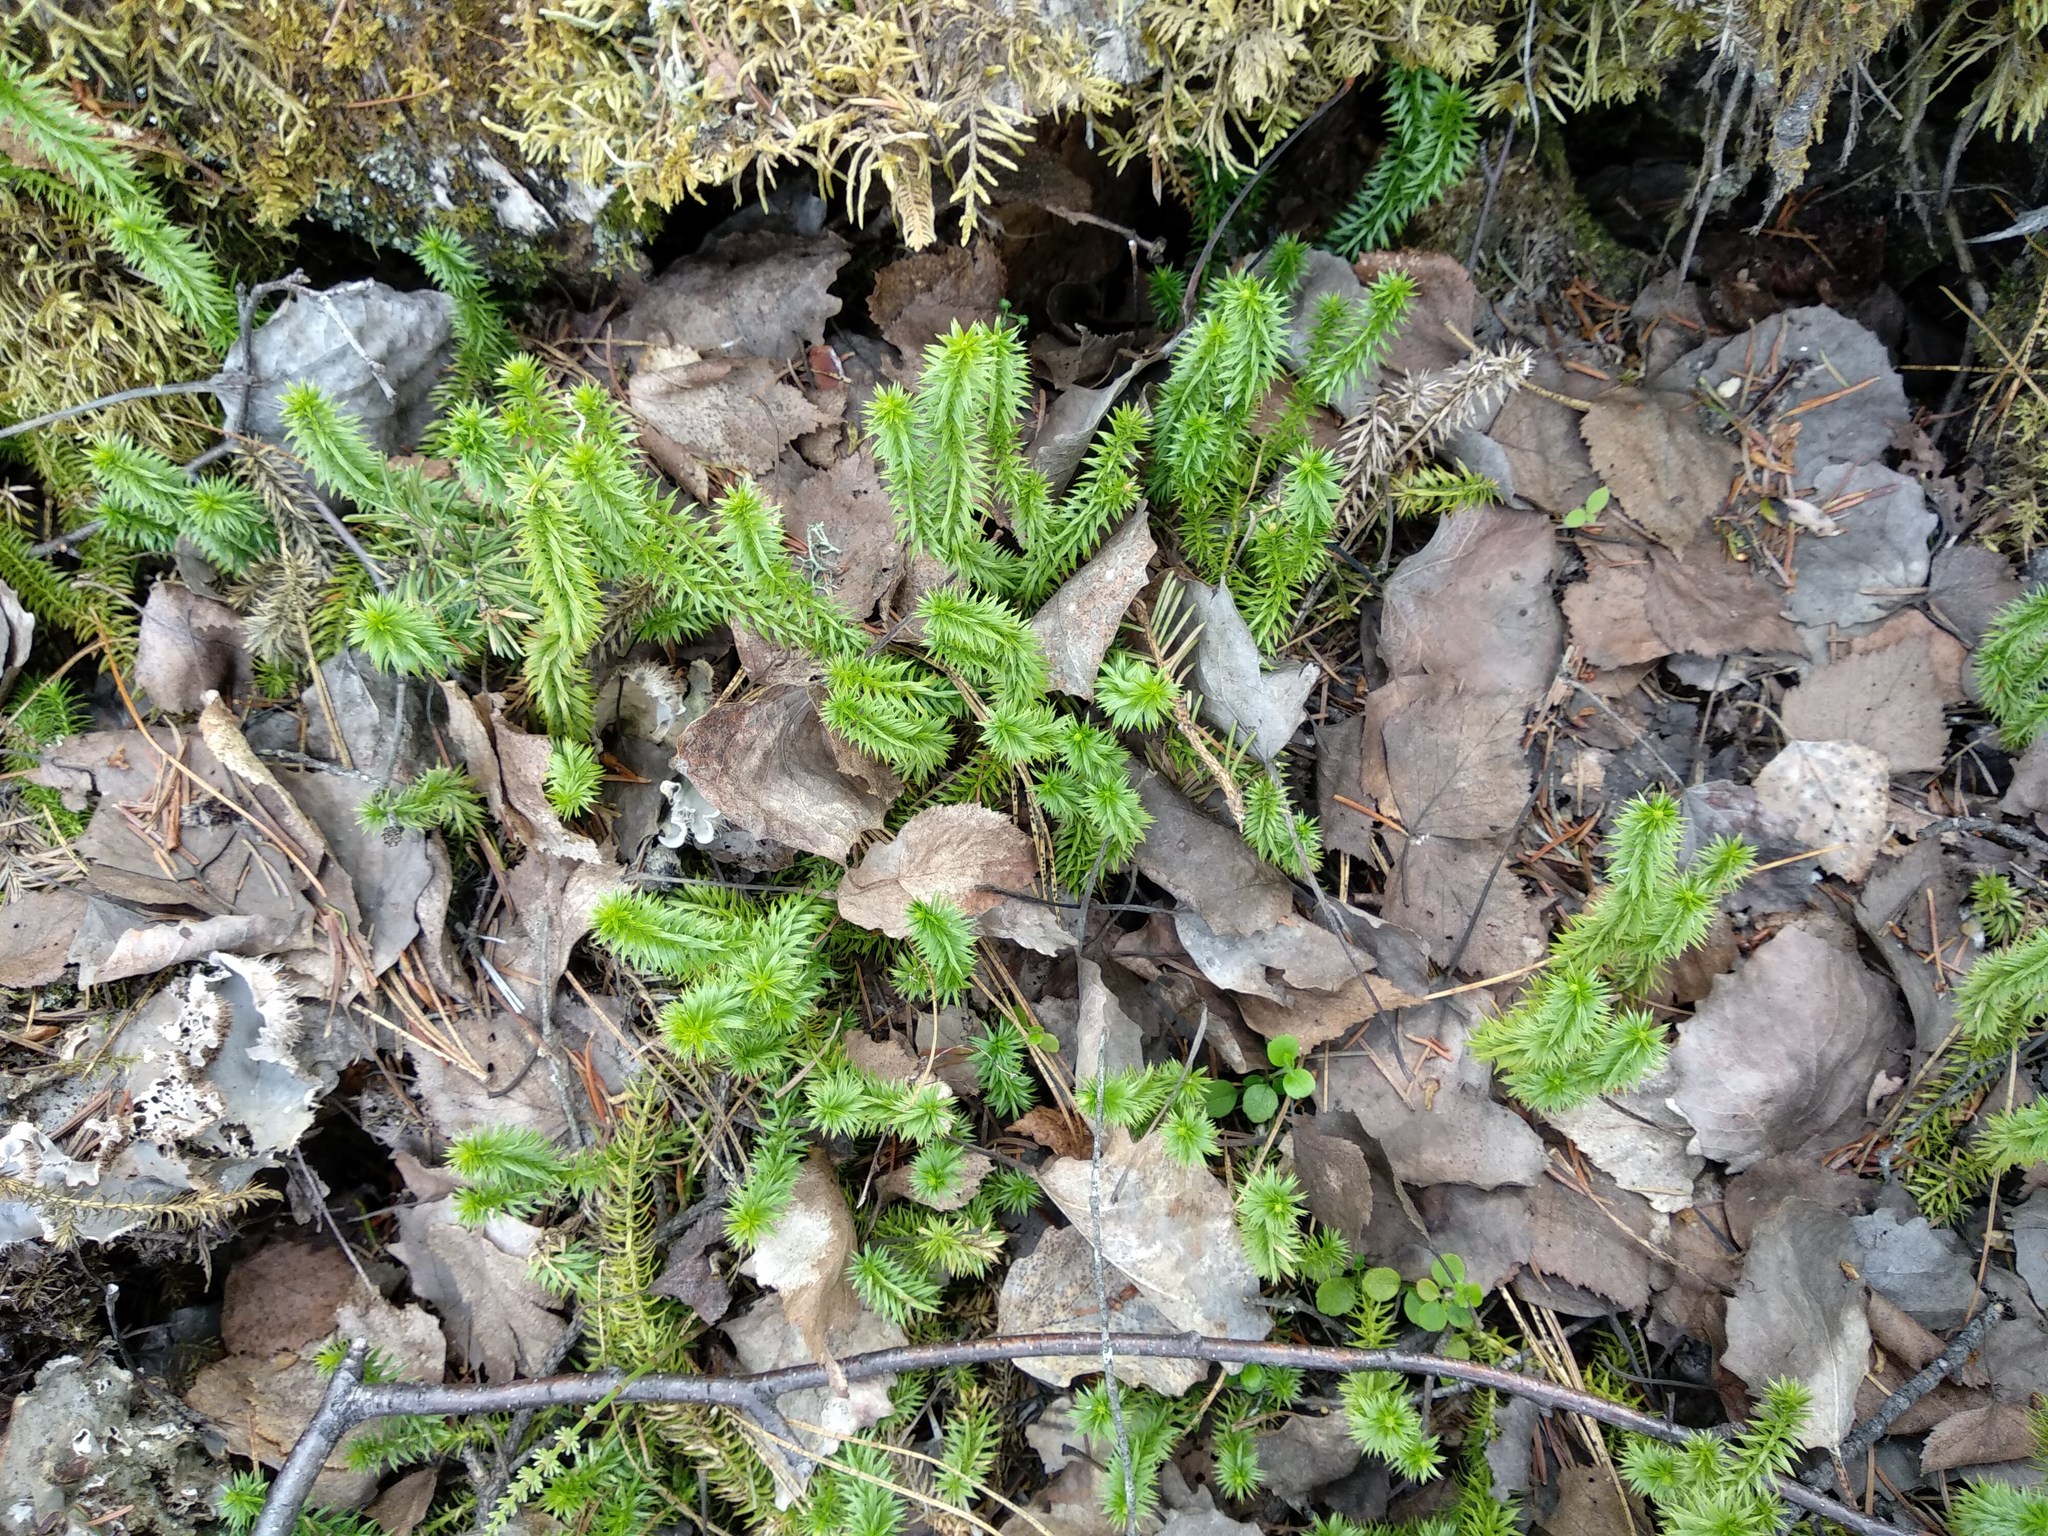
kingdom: Plantae
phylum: Tracheophyta
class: Lycopodiopsida
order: Lycopodiales
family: Lycopodiaceae
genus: Spinulum
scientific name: Spinulum annotinum
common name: Interrupted club-moss
